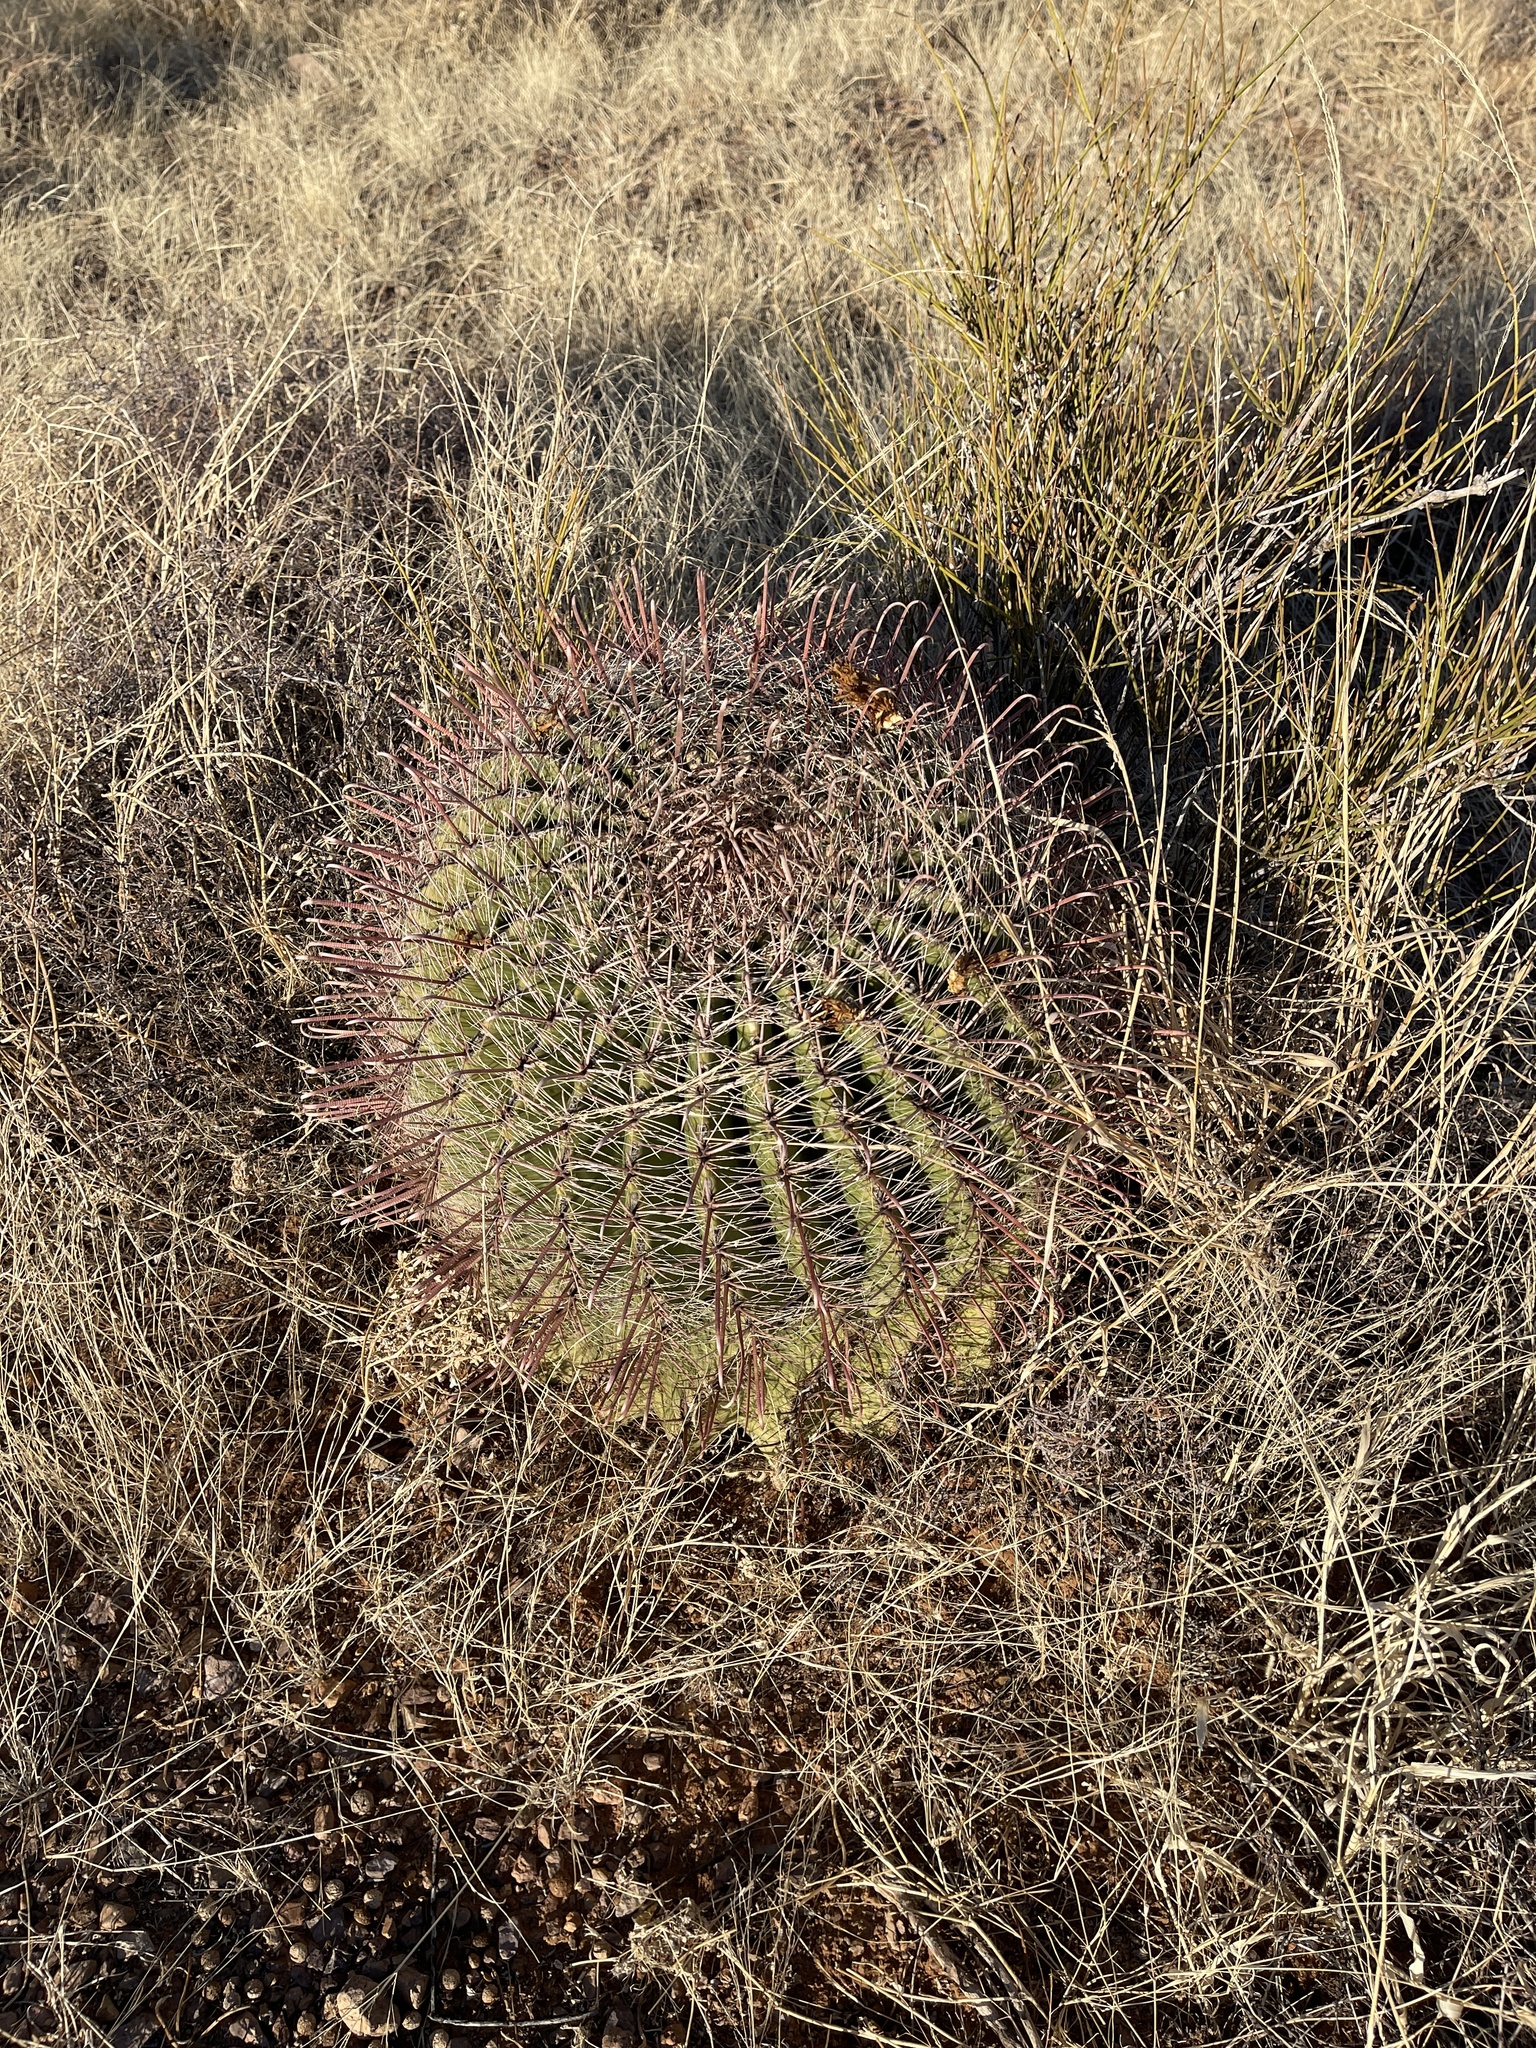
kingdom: Plantae
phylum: Tracheophyta
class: Magnoliopsida
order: Caryophyllales
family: Cactaceae
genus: Ferocactus
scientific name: Ferocactus wislizeni
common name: Candy barrel cactus
